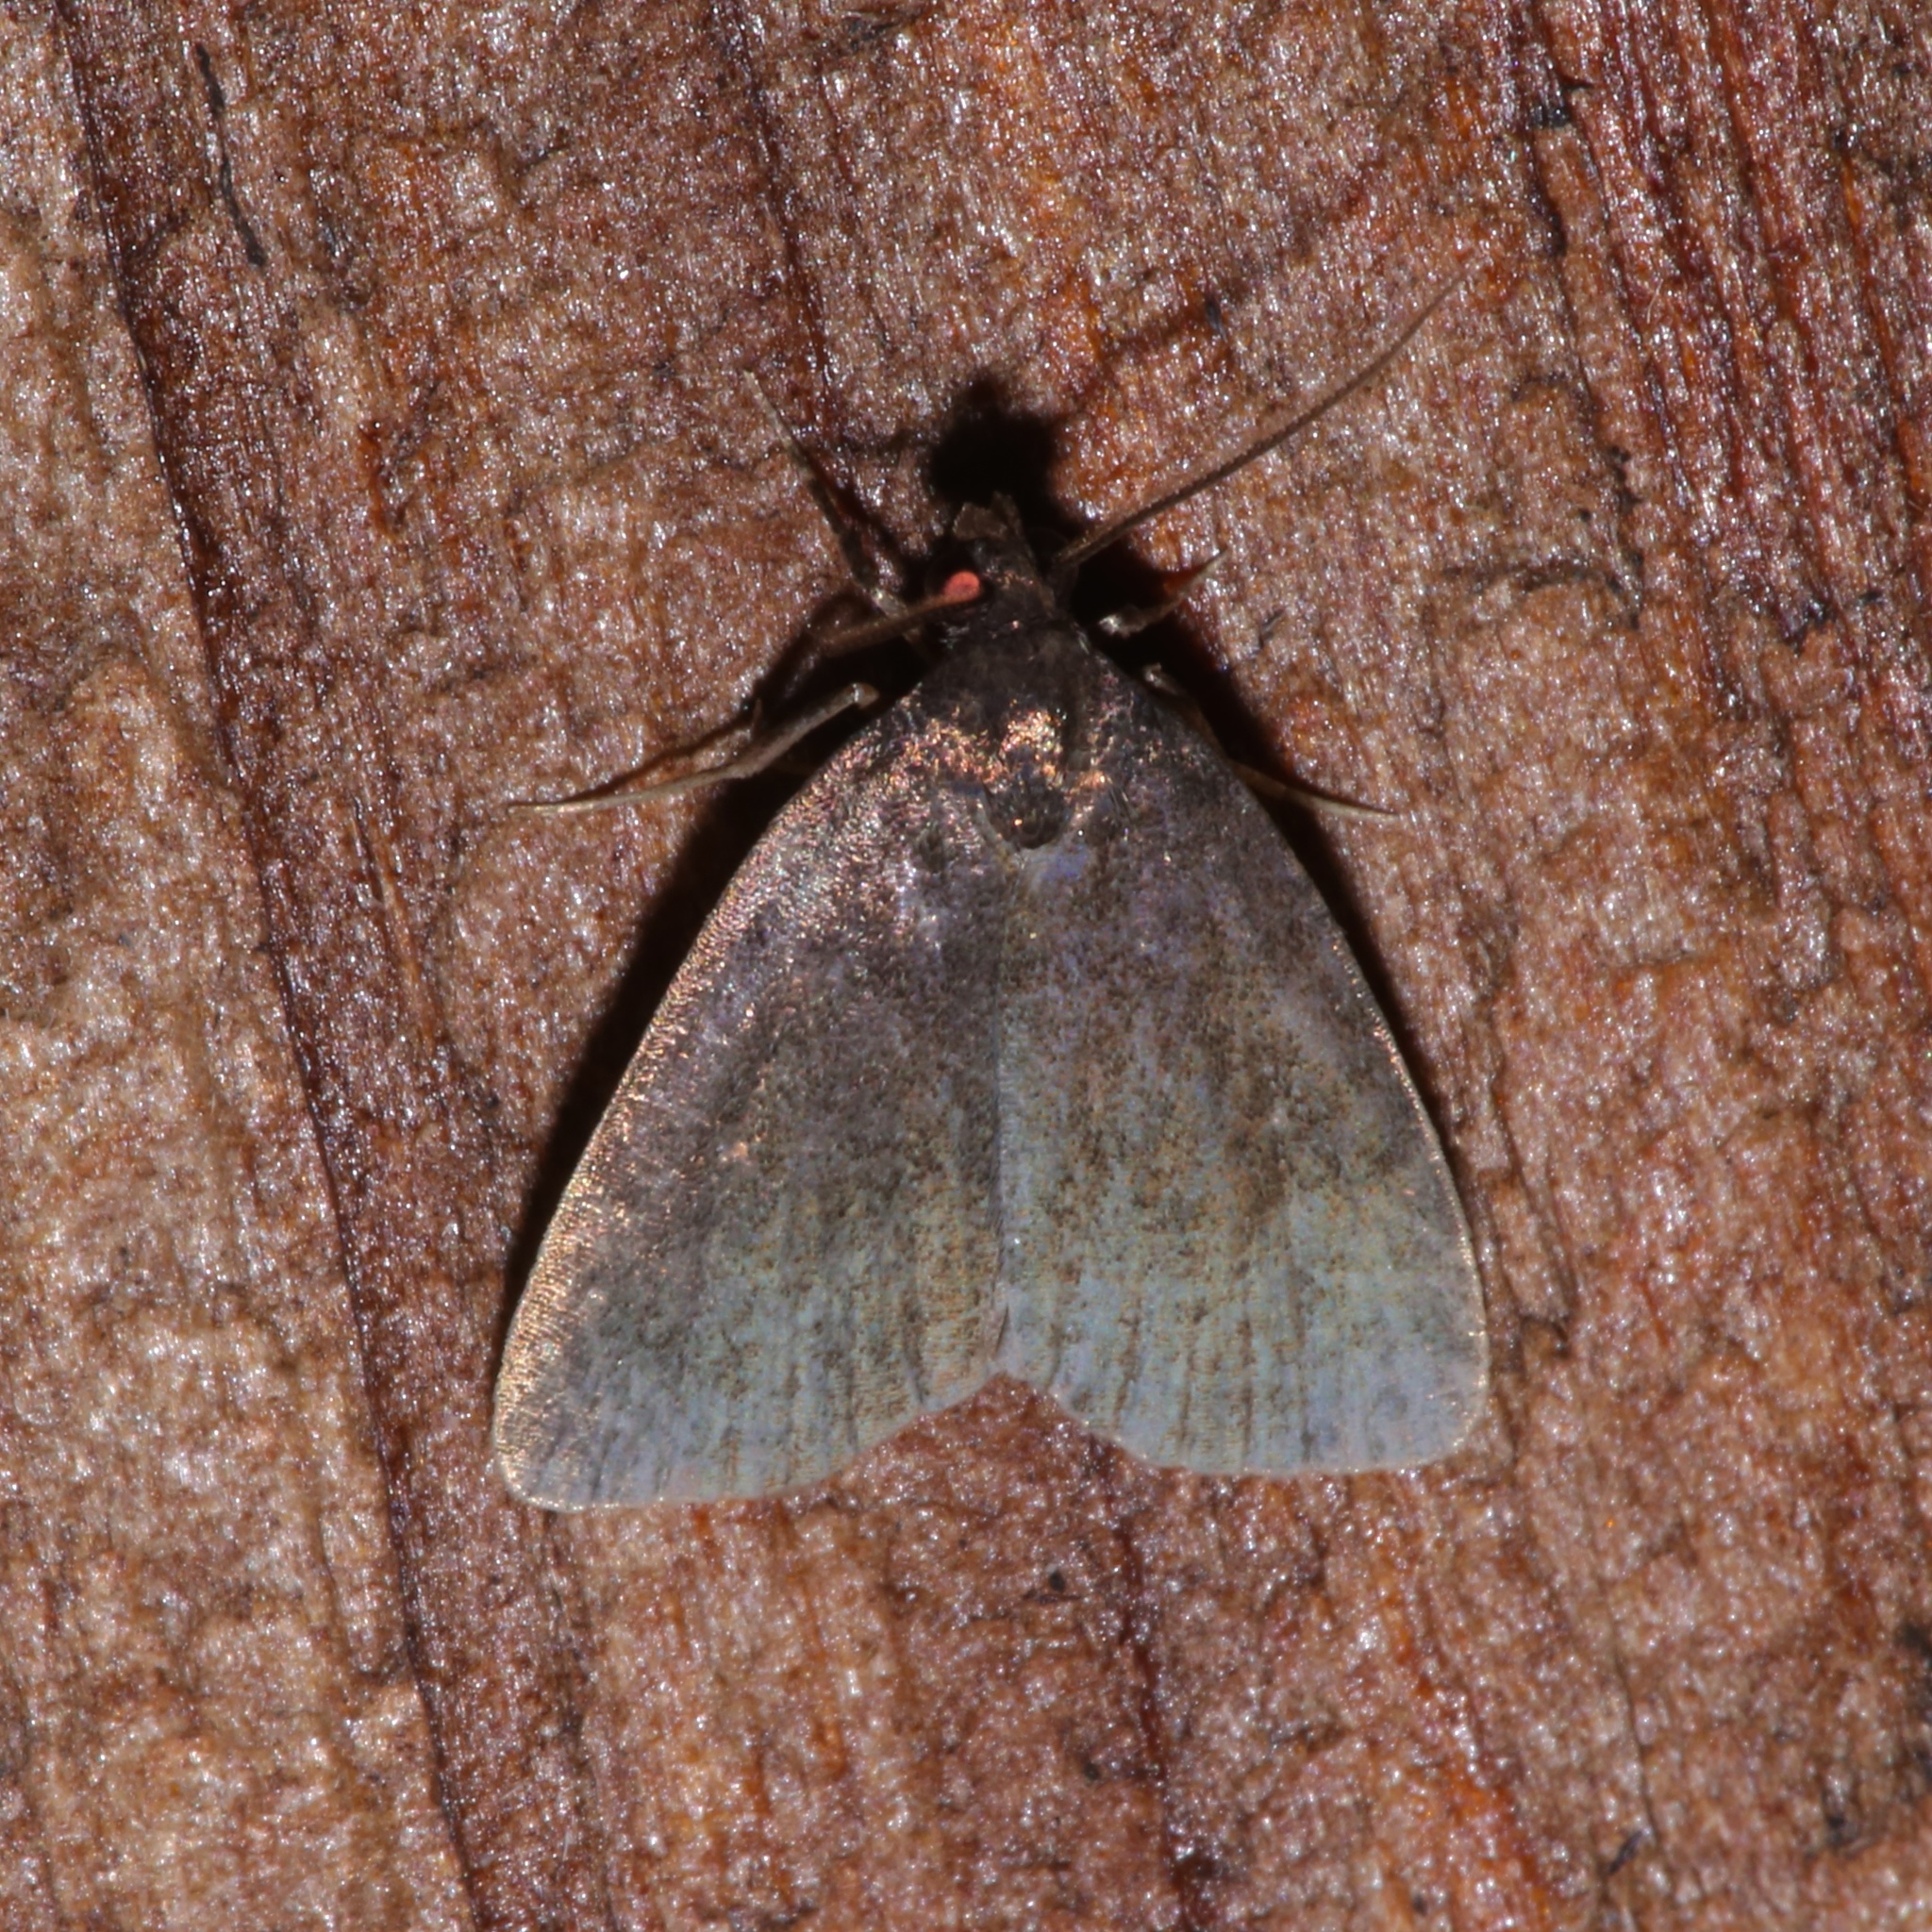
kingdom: Animalia
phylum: Arthropoda
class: Insecta
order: Lepidoptera
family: Erebidae
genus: Idia
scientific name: Idia rotundalis
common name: Rotund idia moth
